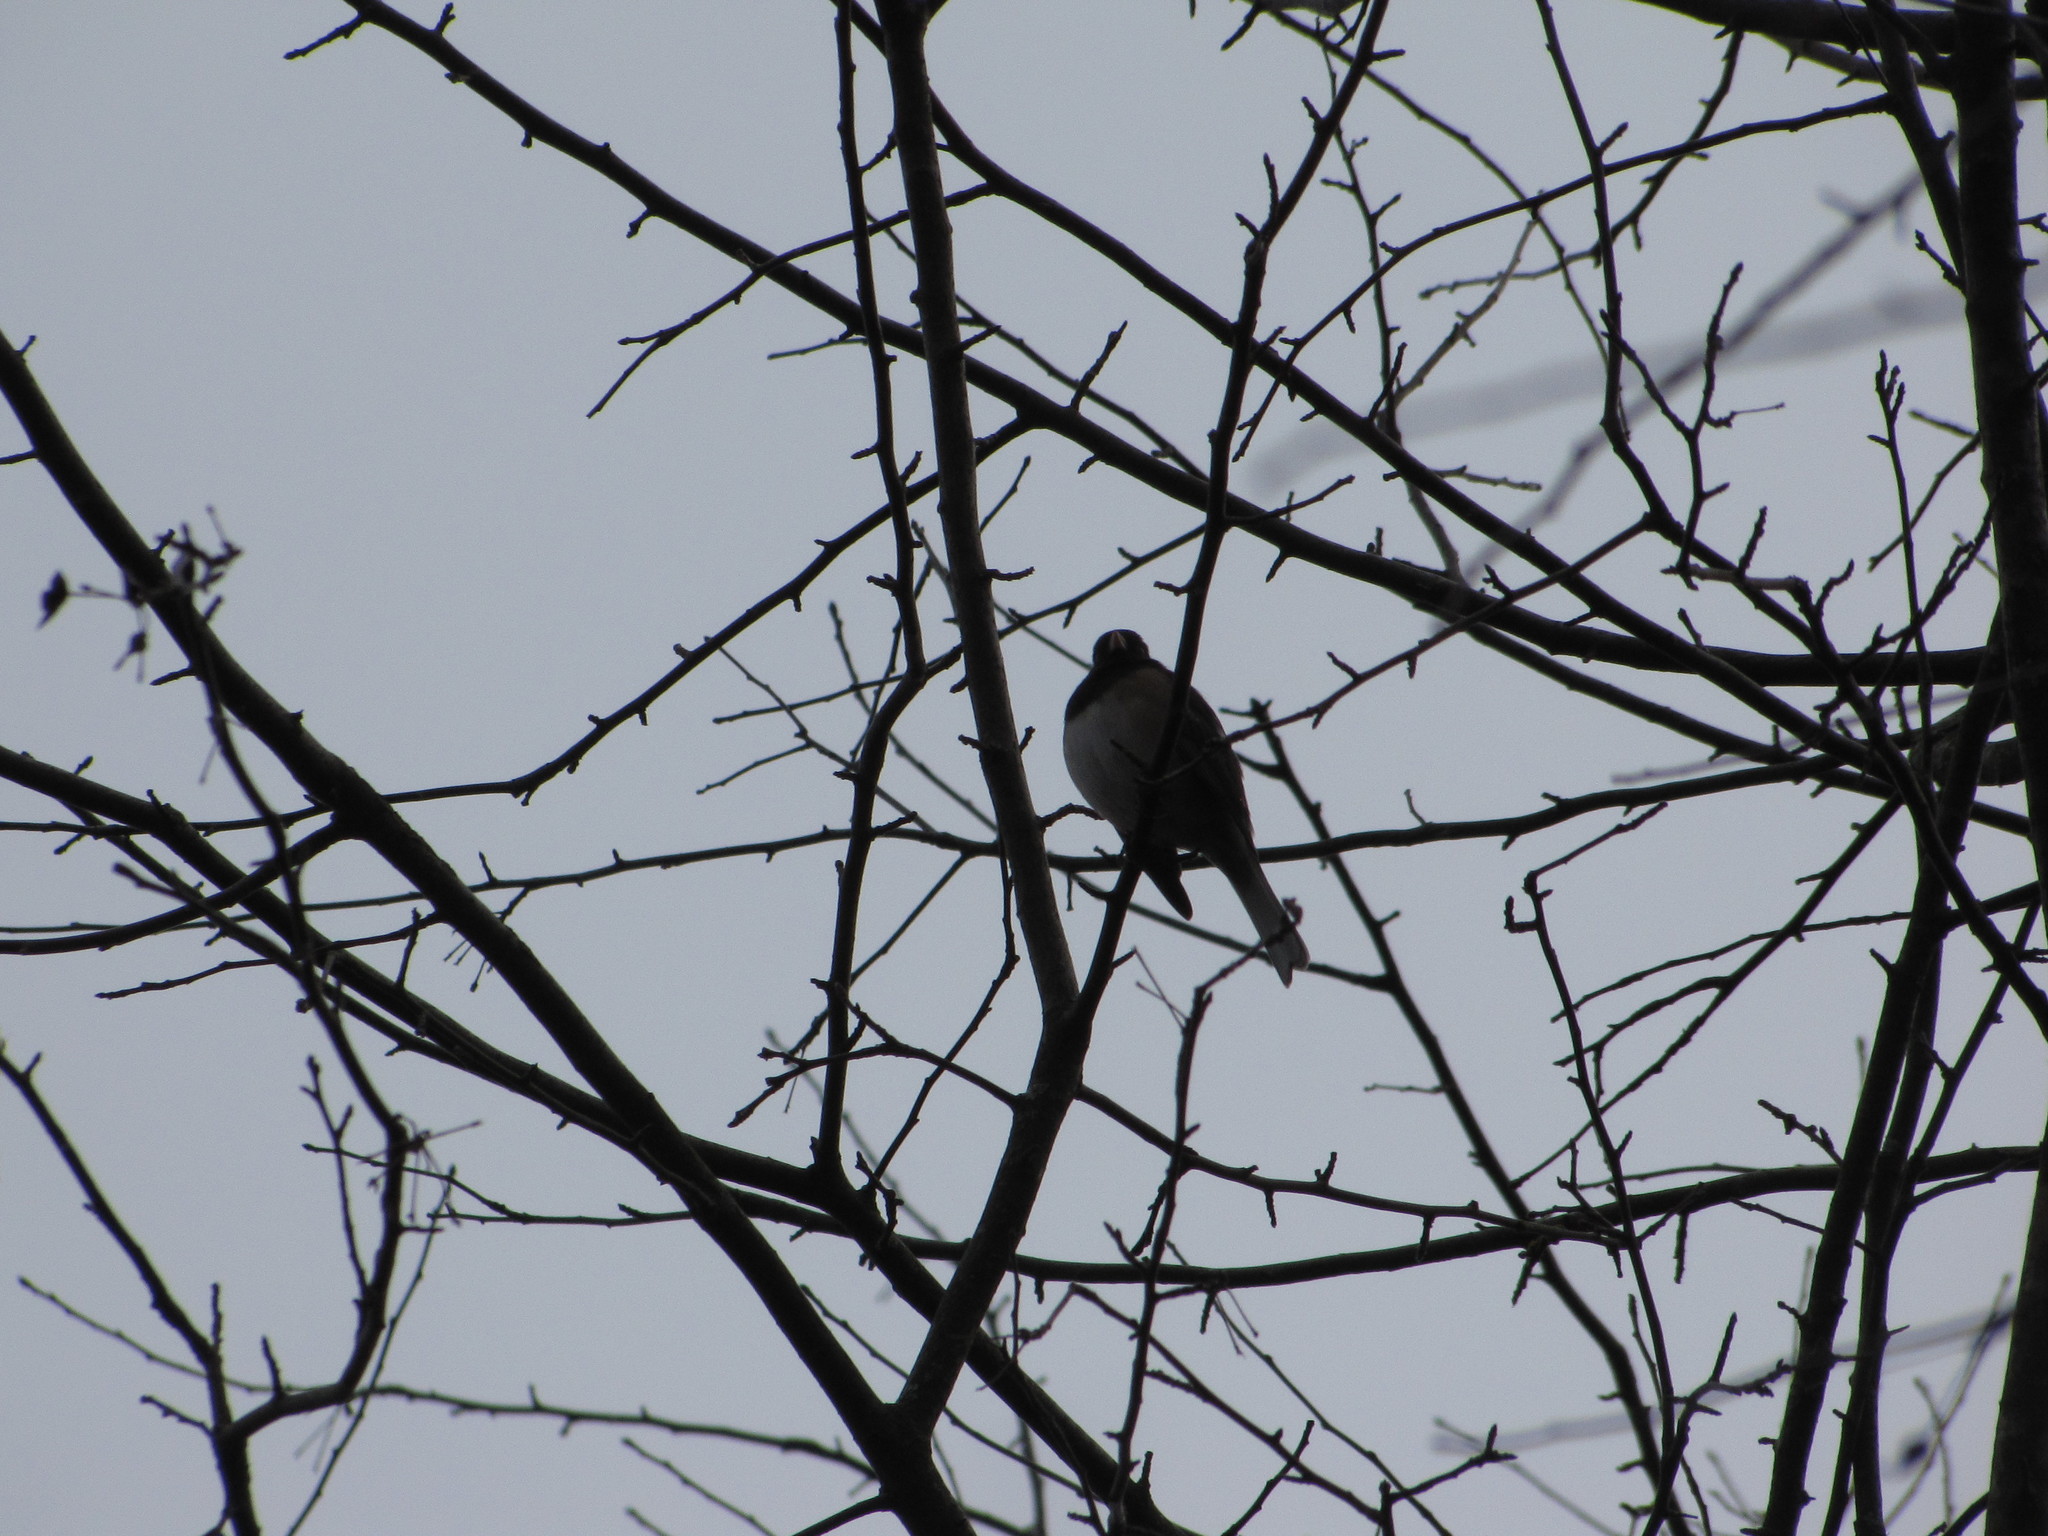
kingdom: Animalia
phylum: Chordata
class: Aves
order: Passeriformes
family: Passerellidae
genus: Junco
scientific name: Junco hyemalis
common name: Dark-eyed junco
